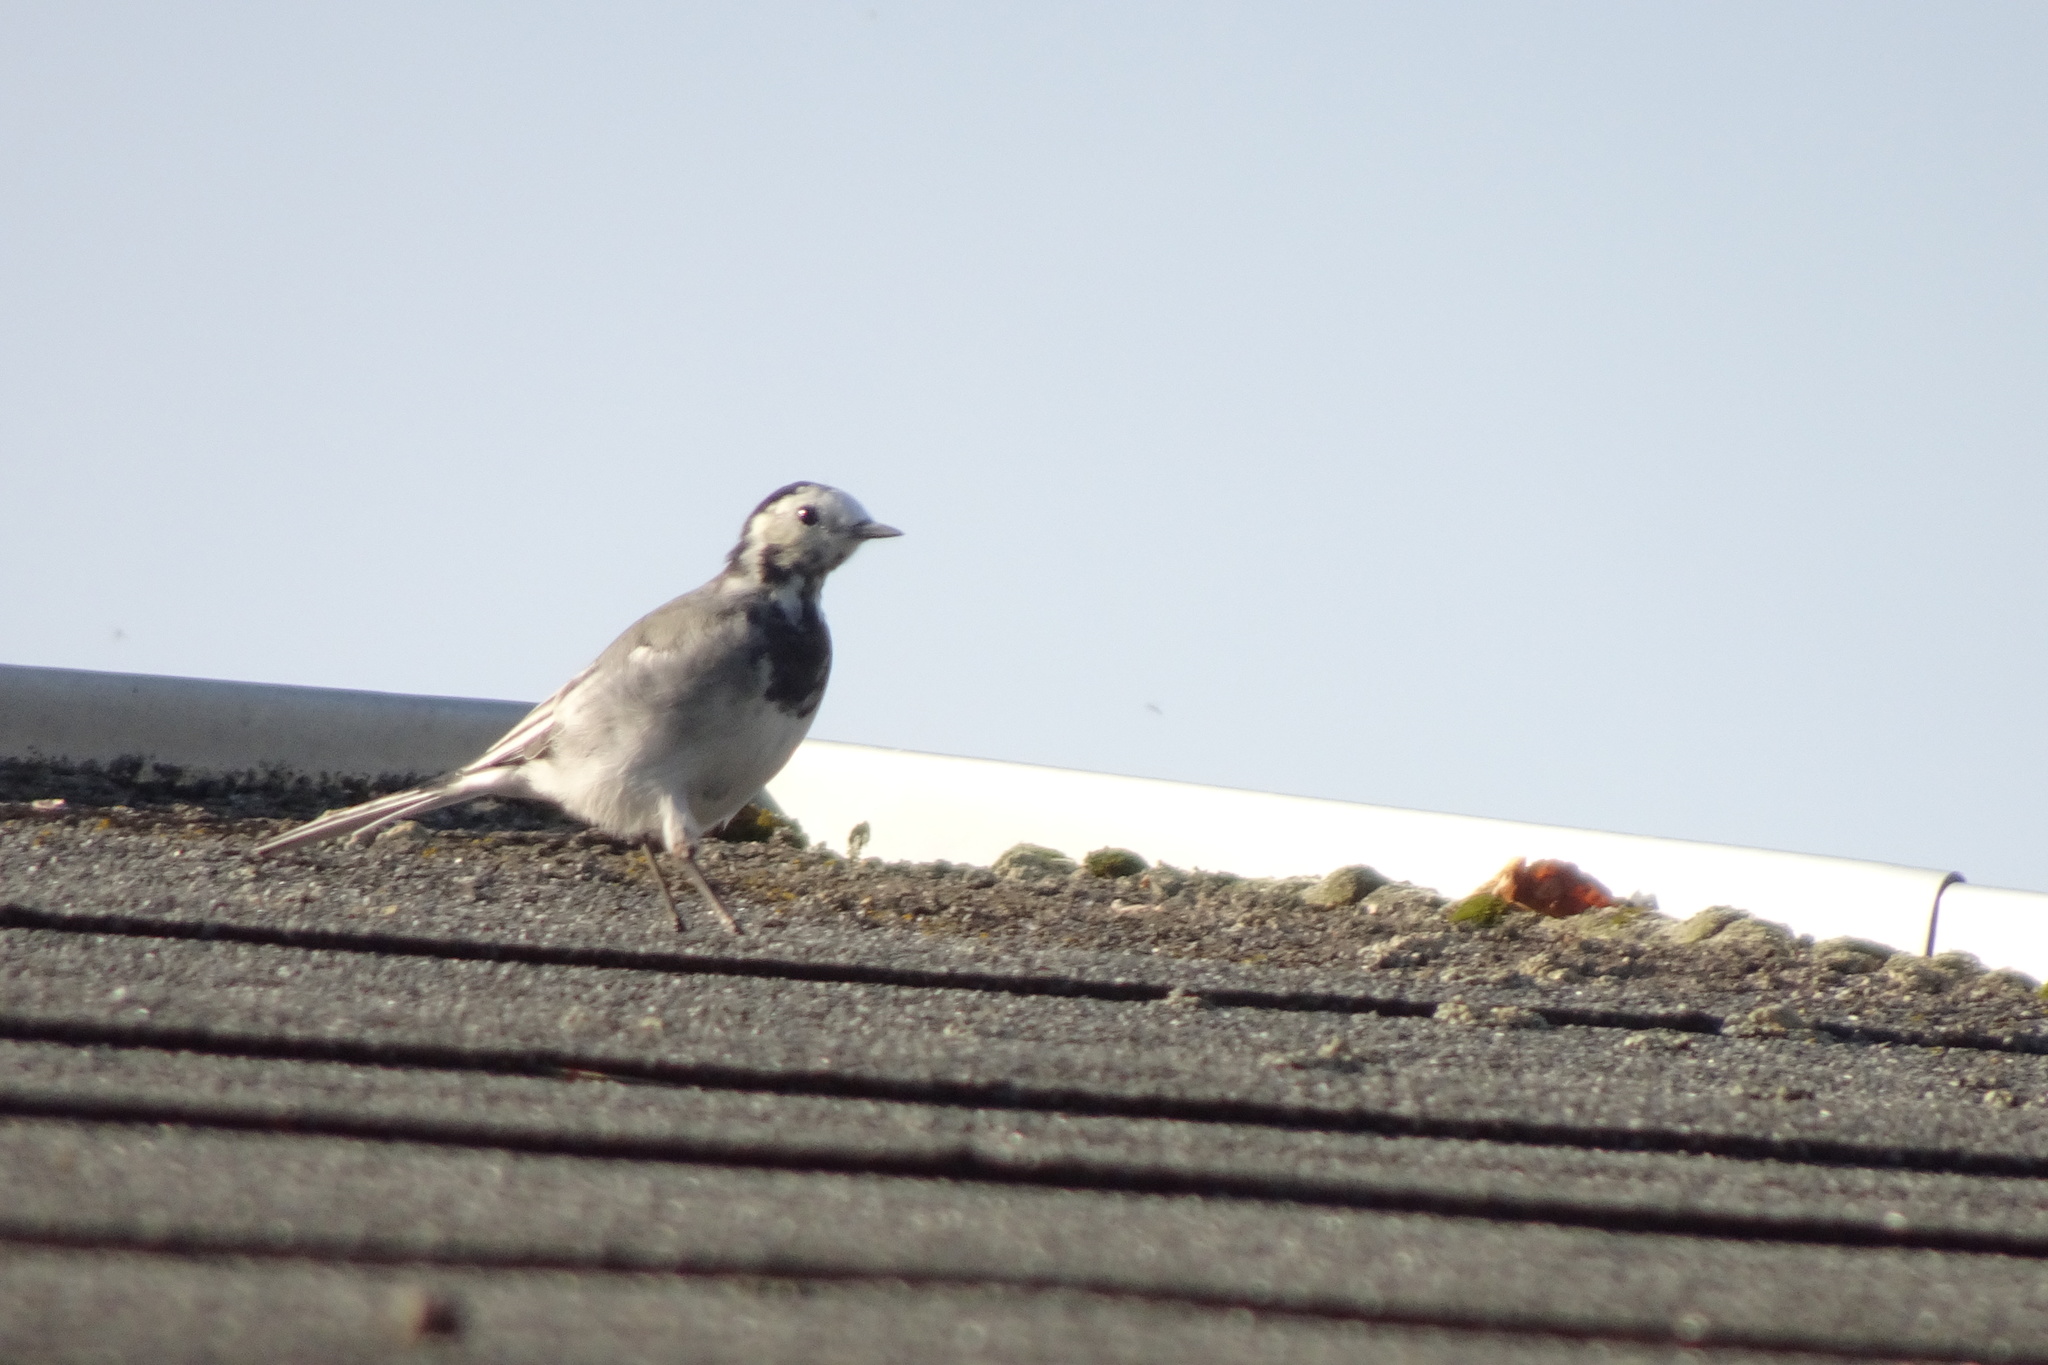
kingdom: Animalia
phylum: Chordata
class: Aves
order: Passeriformes
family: Motacillidae
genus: Motacilla
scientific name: Motacilla alba
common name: White wagtail
